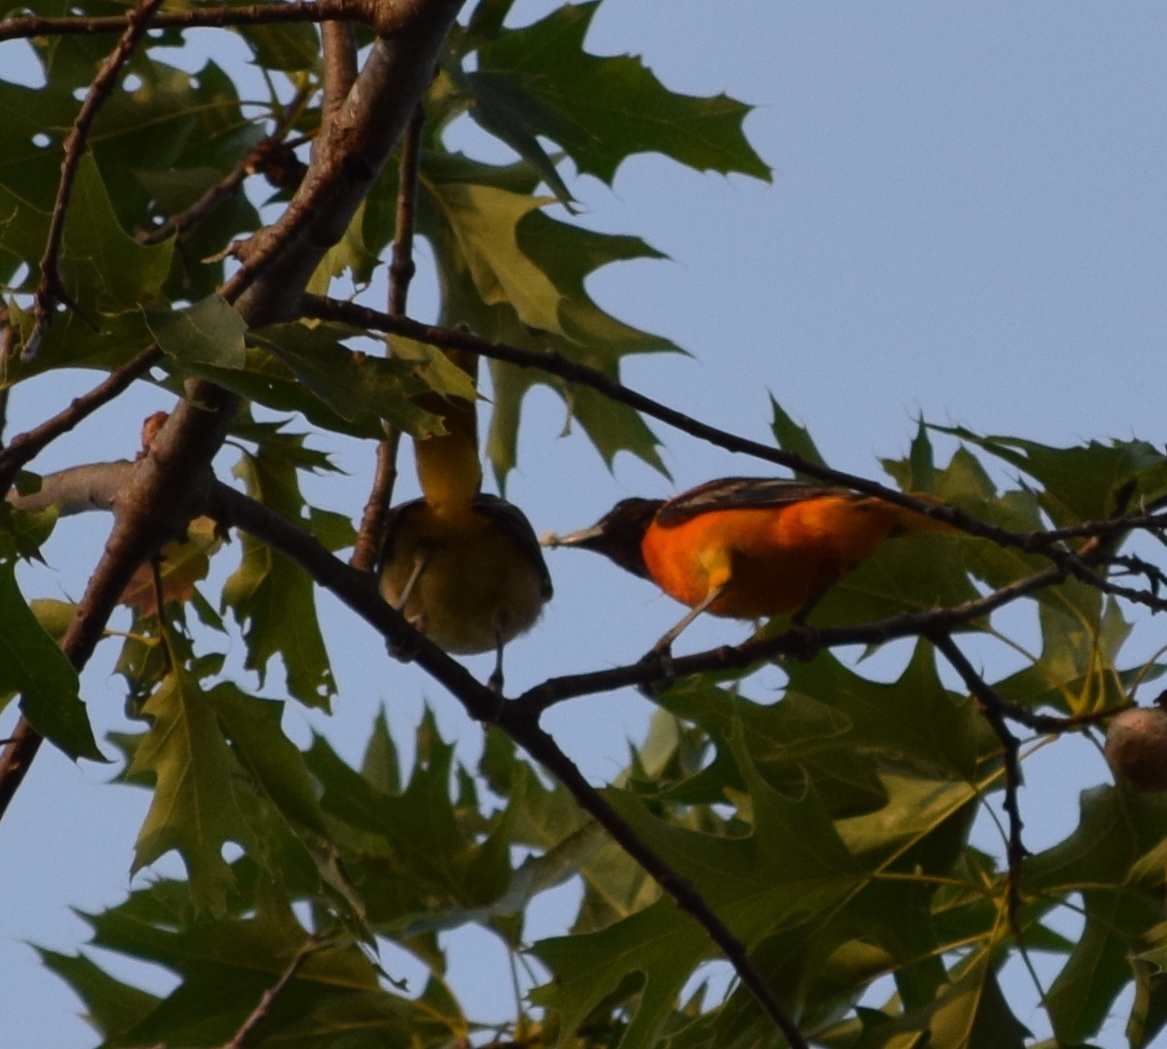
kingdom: Animalia
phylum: Chordata
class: Aves
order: Passeriformes
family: Icteridae
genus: Icterus
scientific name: Icterus galbula
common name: Baltimore oriole
